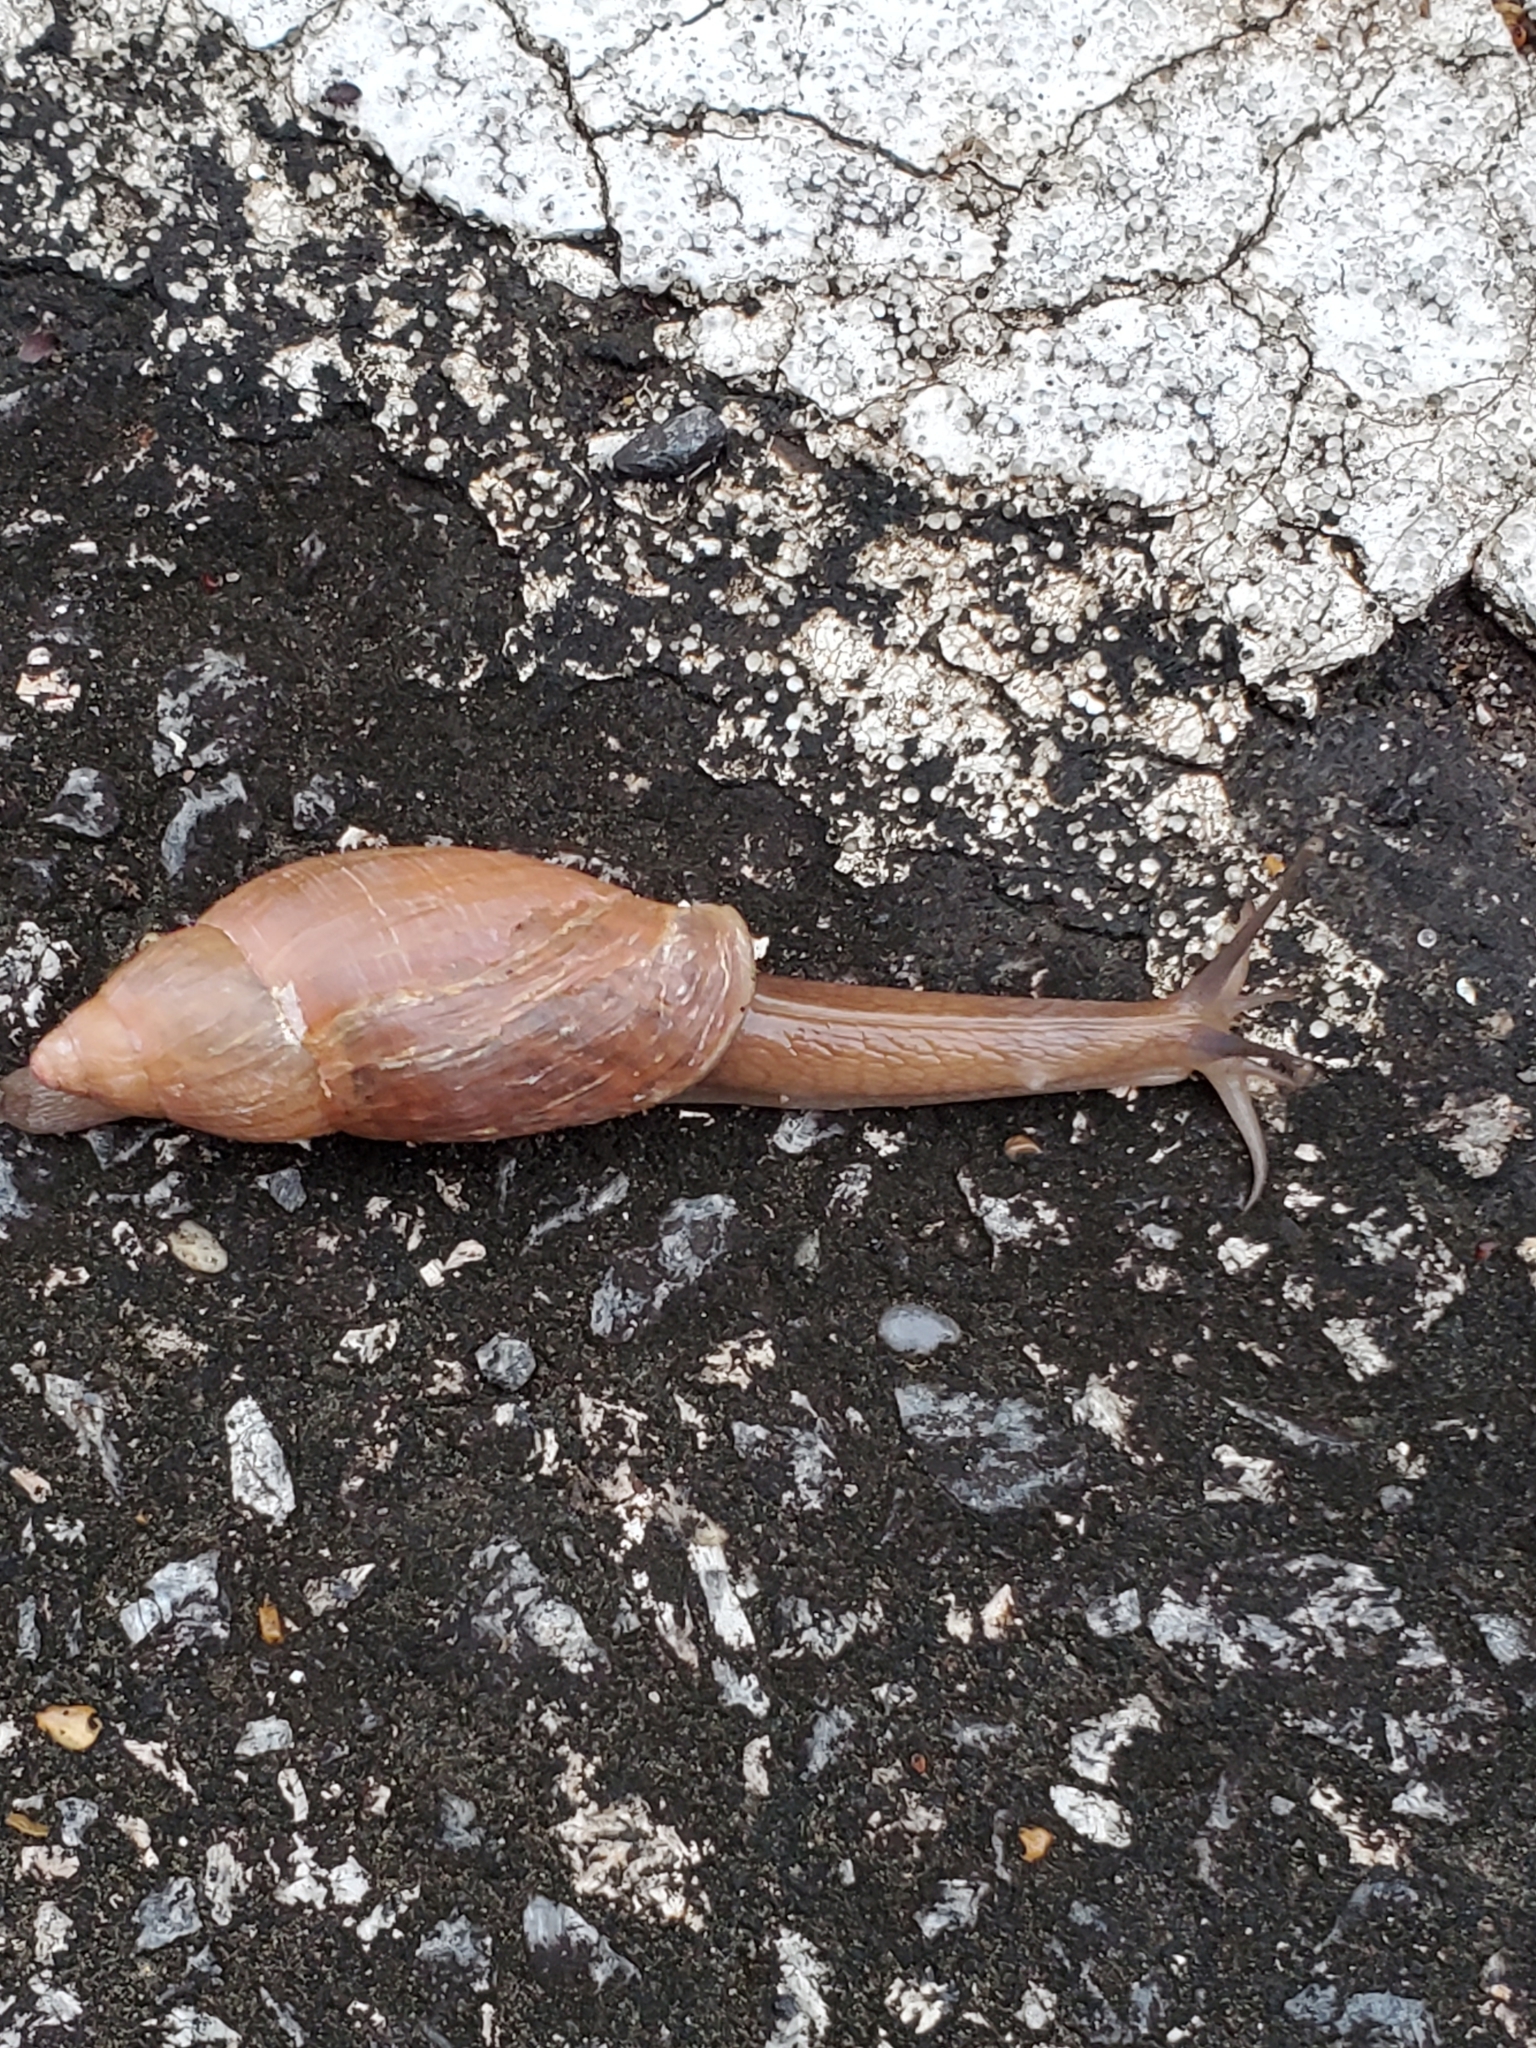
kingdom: Animalia
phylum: Mollusca
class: Gastropoda
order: Stylommatophora
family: Spiraxidae
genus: Euglandina
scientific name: Euglandina rosea
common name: Rosy wolfsnail
